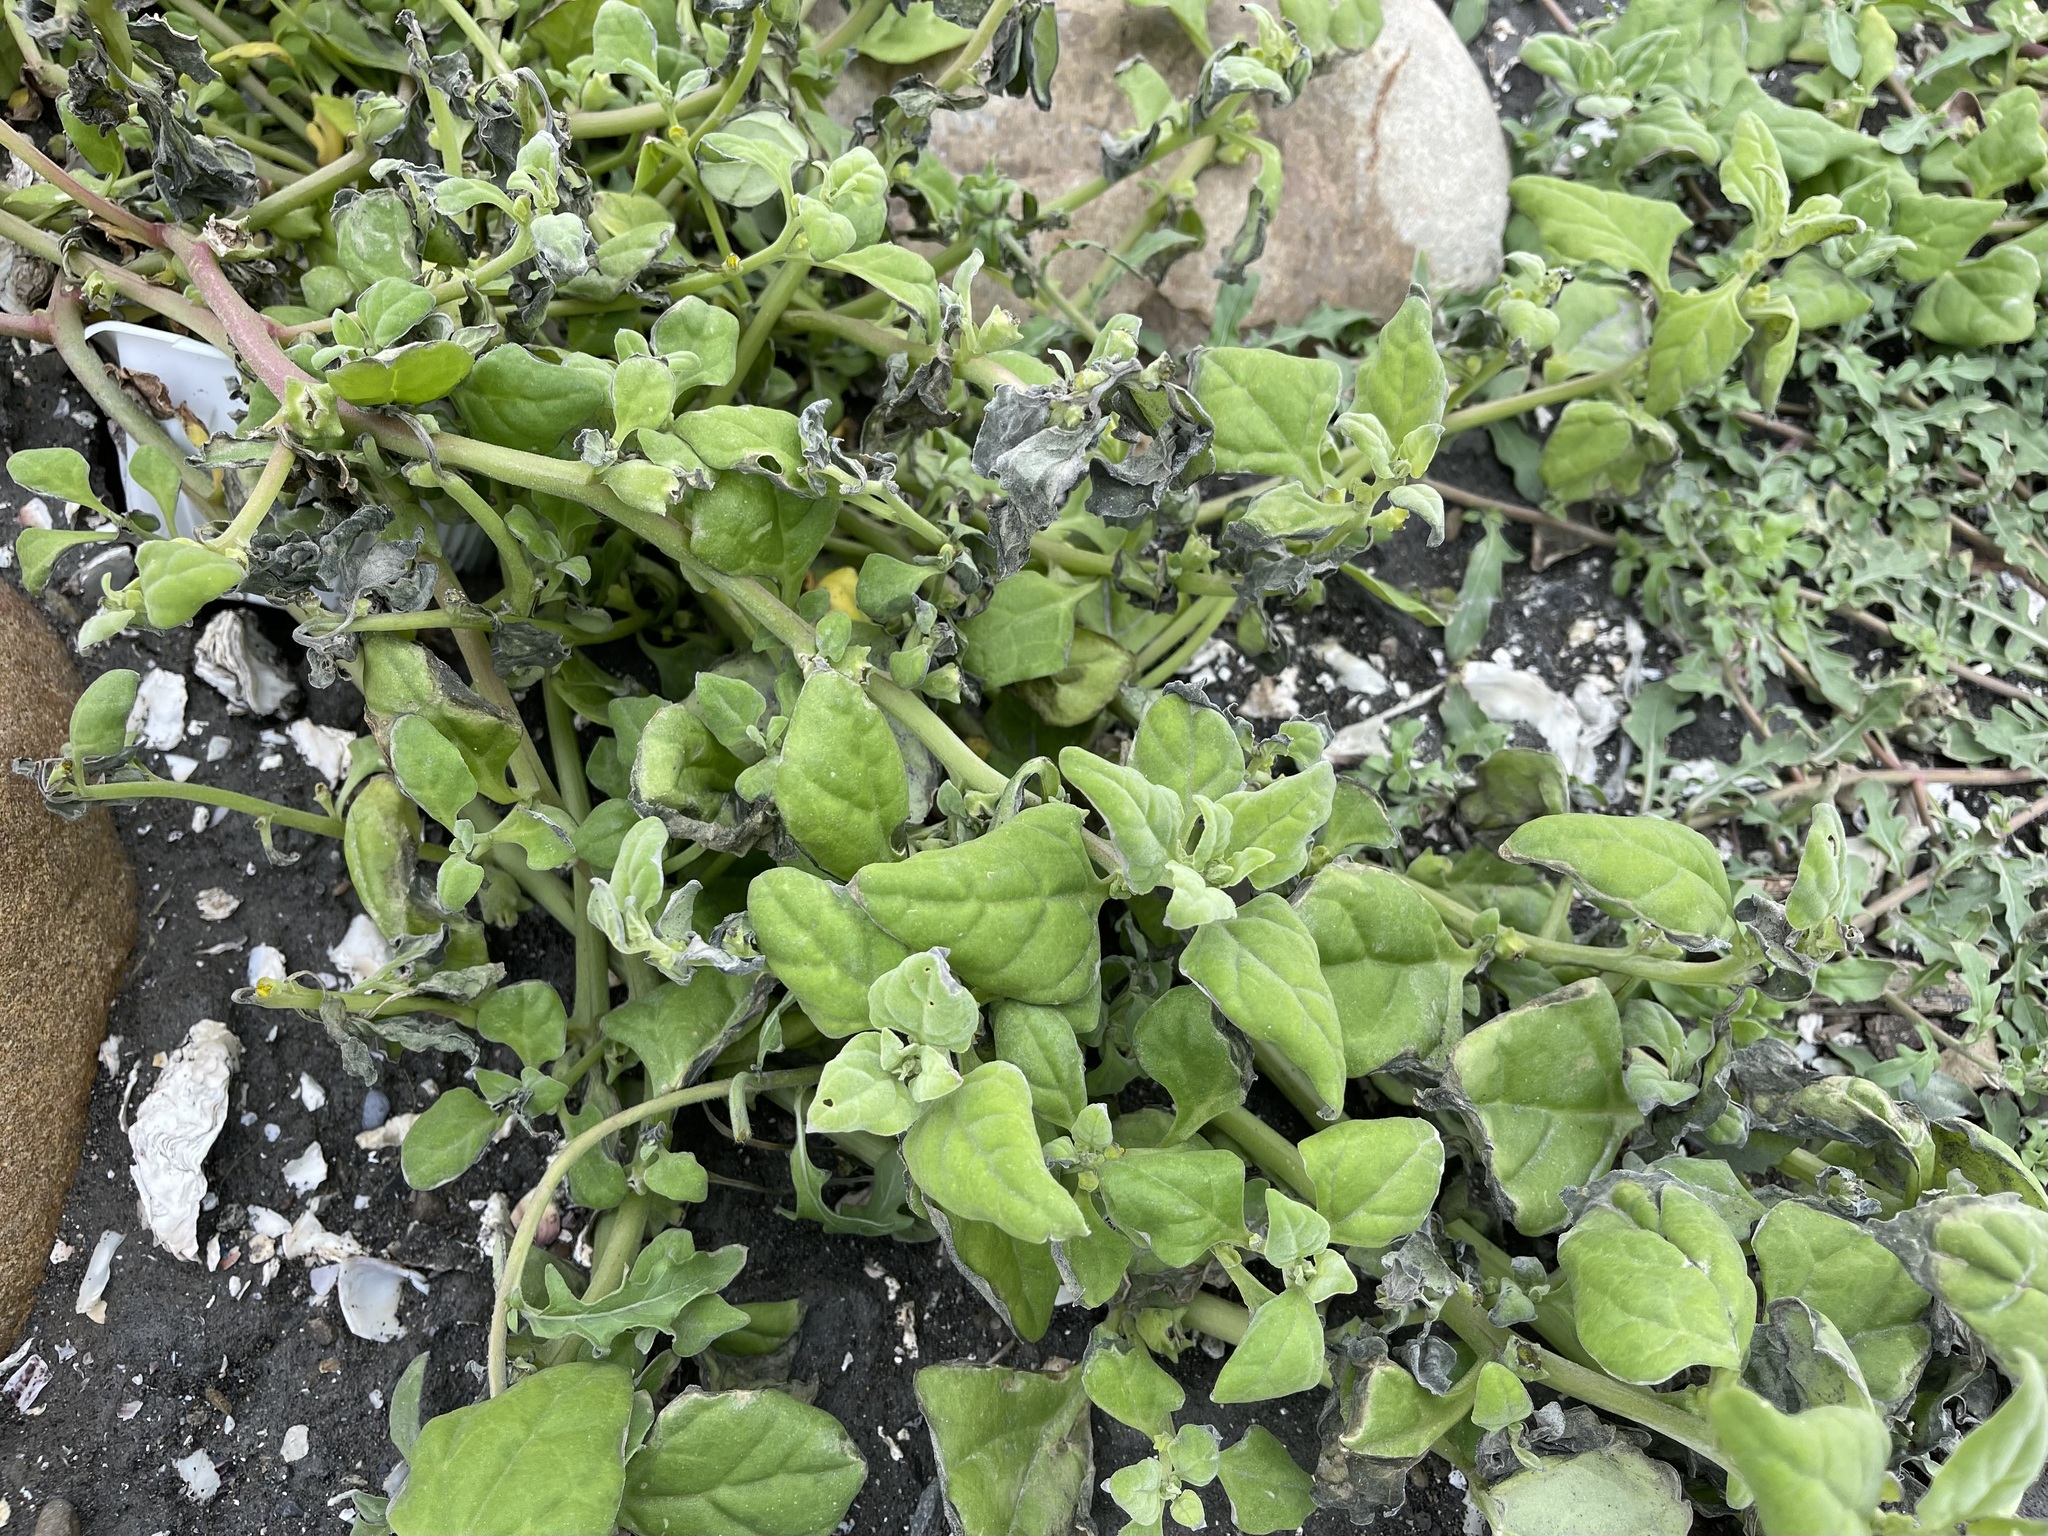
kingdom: Plantae
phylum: Tracheophyta
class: Magnoliopsida
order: Caryophyllales
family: Aizoaceae
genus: Tetragonia
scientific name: Tetragonia tetragonoides
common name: New zealand-spinach
